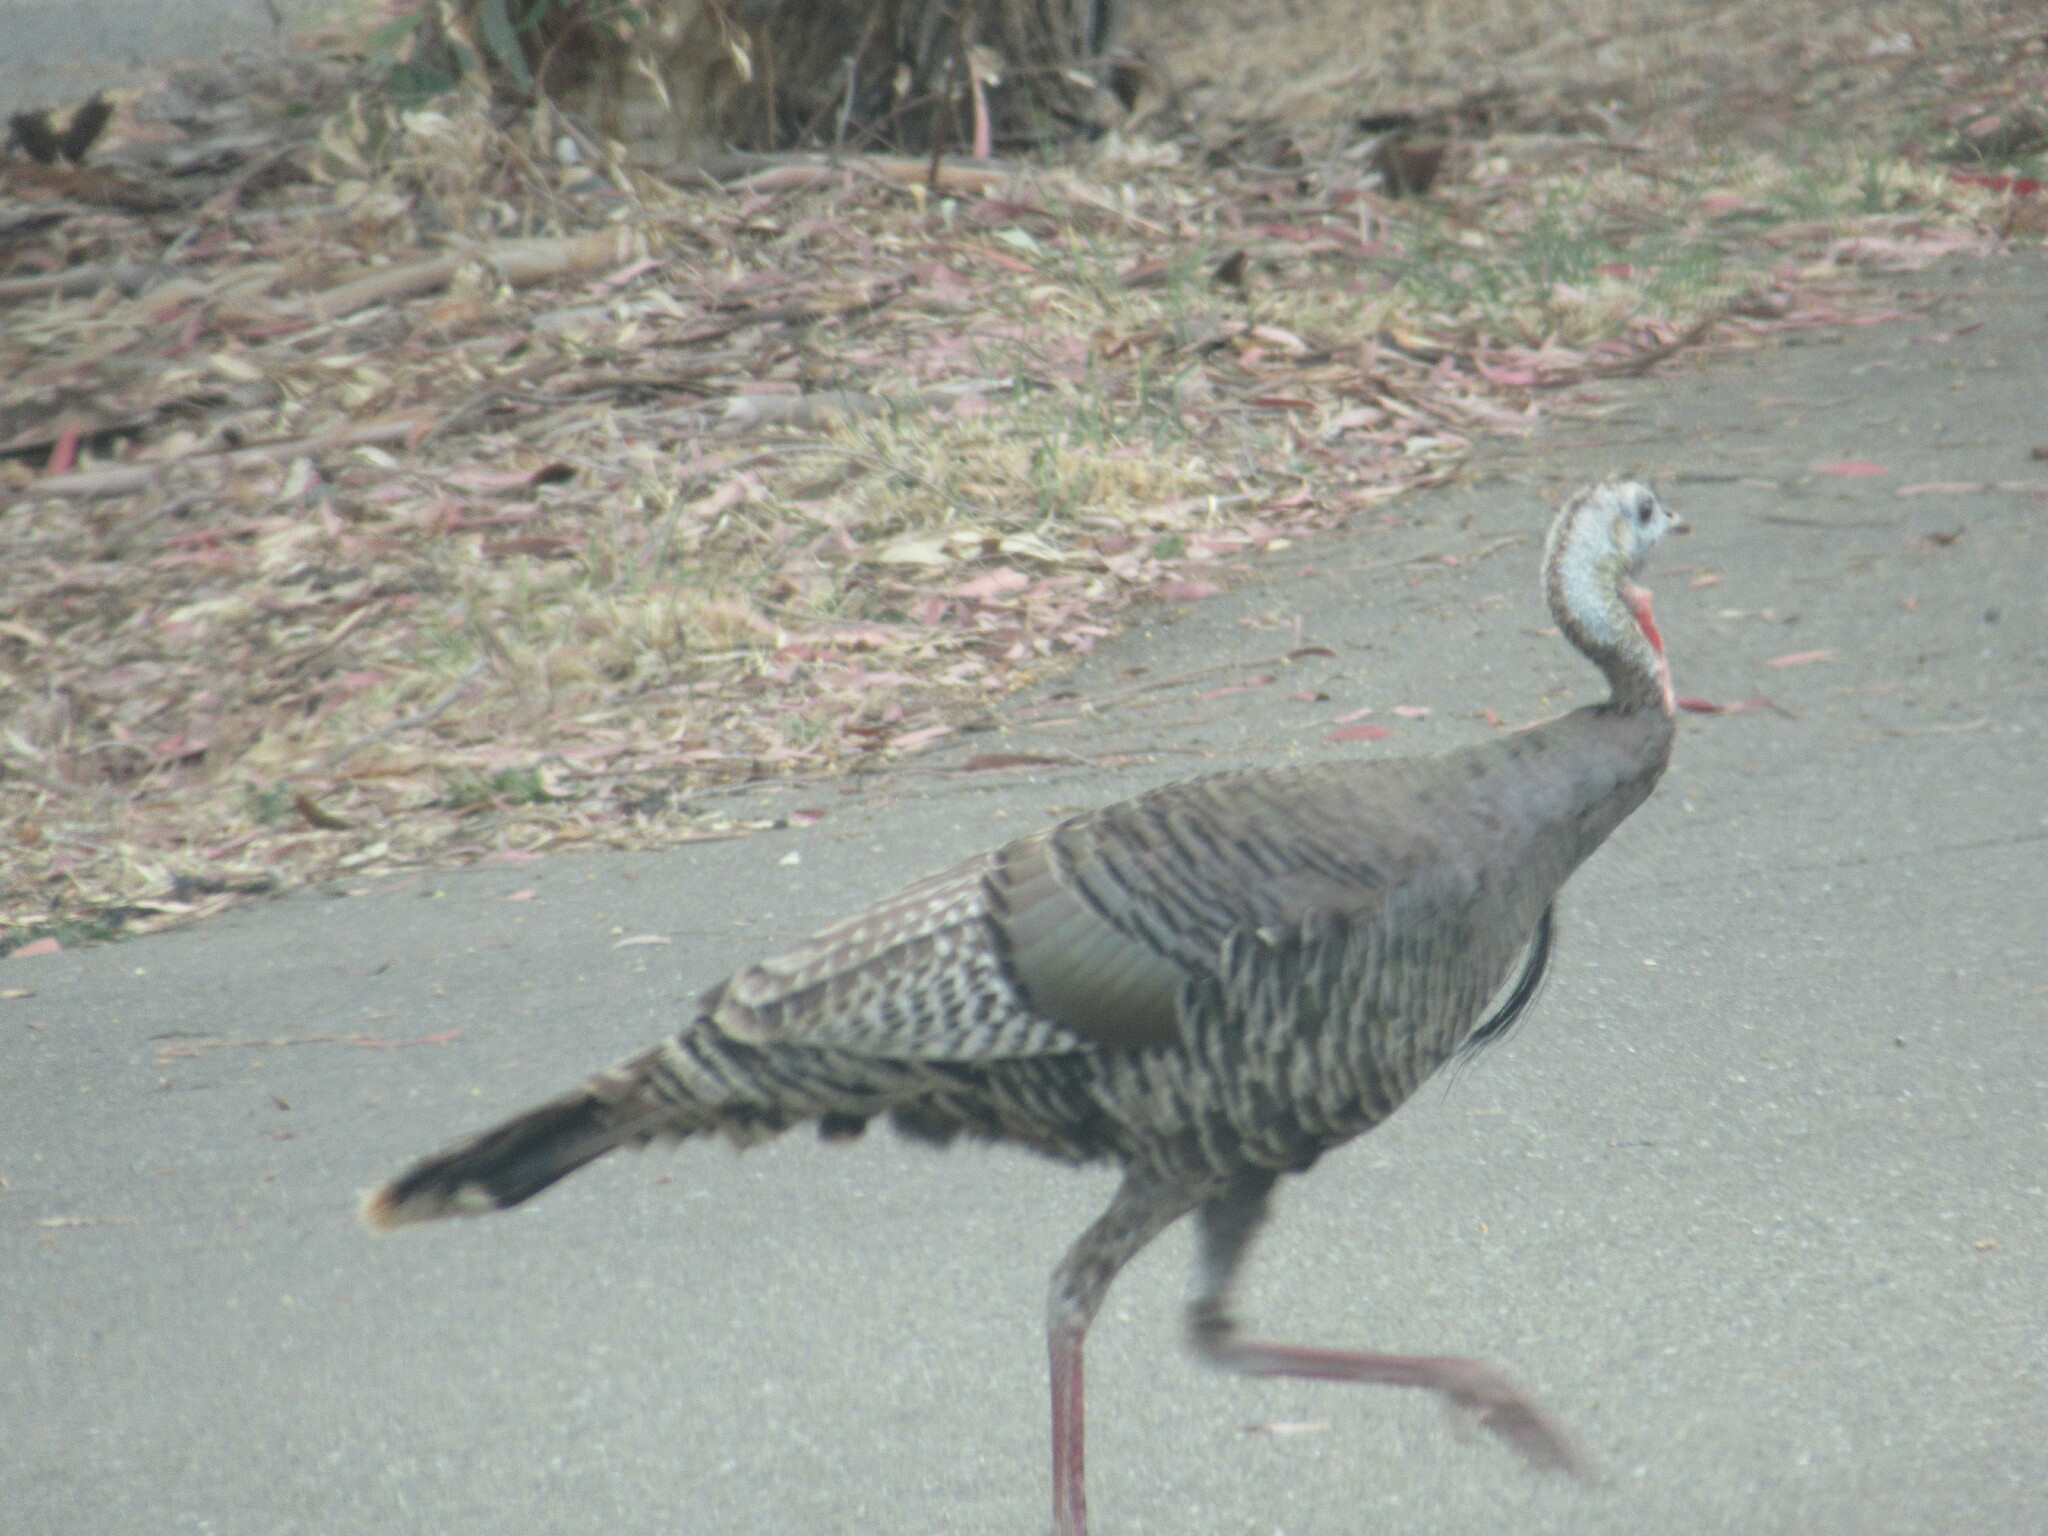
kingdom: Animalia
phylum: Chordata
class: Aves
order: Galliformes
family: Phasianidae
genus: Meleagris
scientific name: Meleagris gallopavo
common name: Wild turkey
